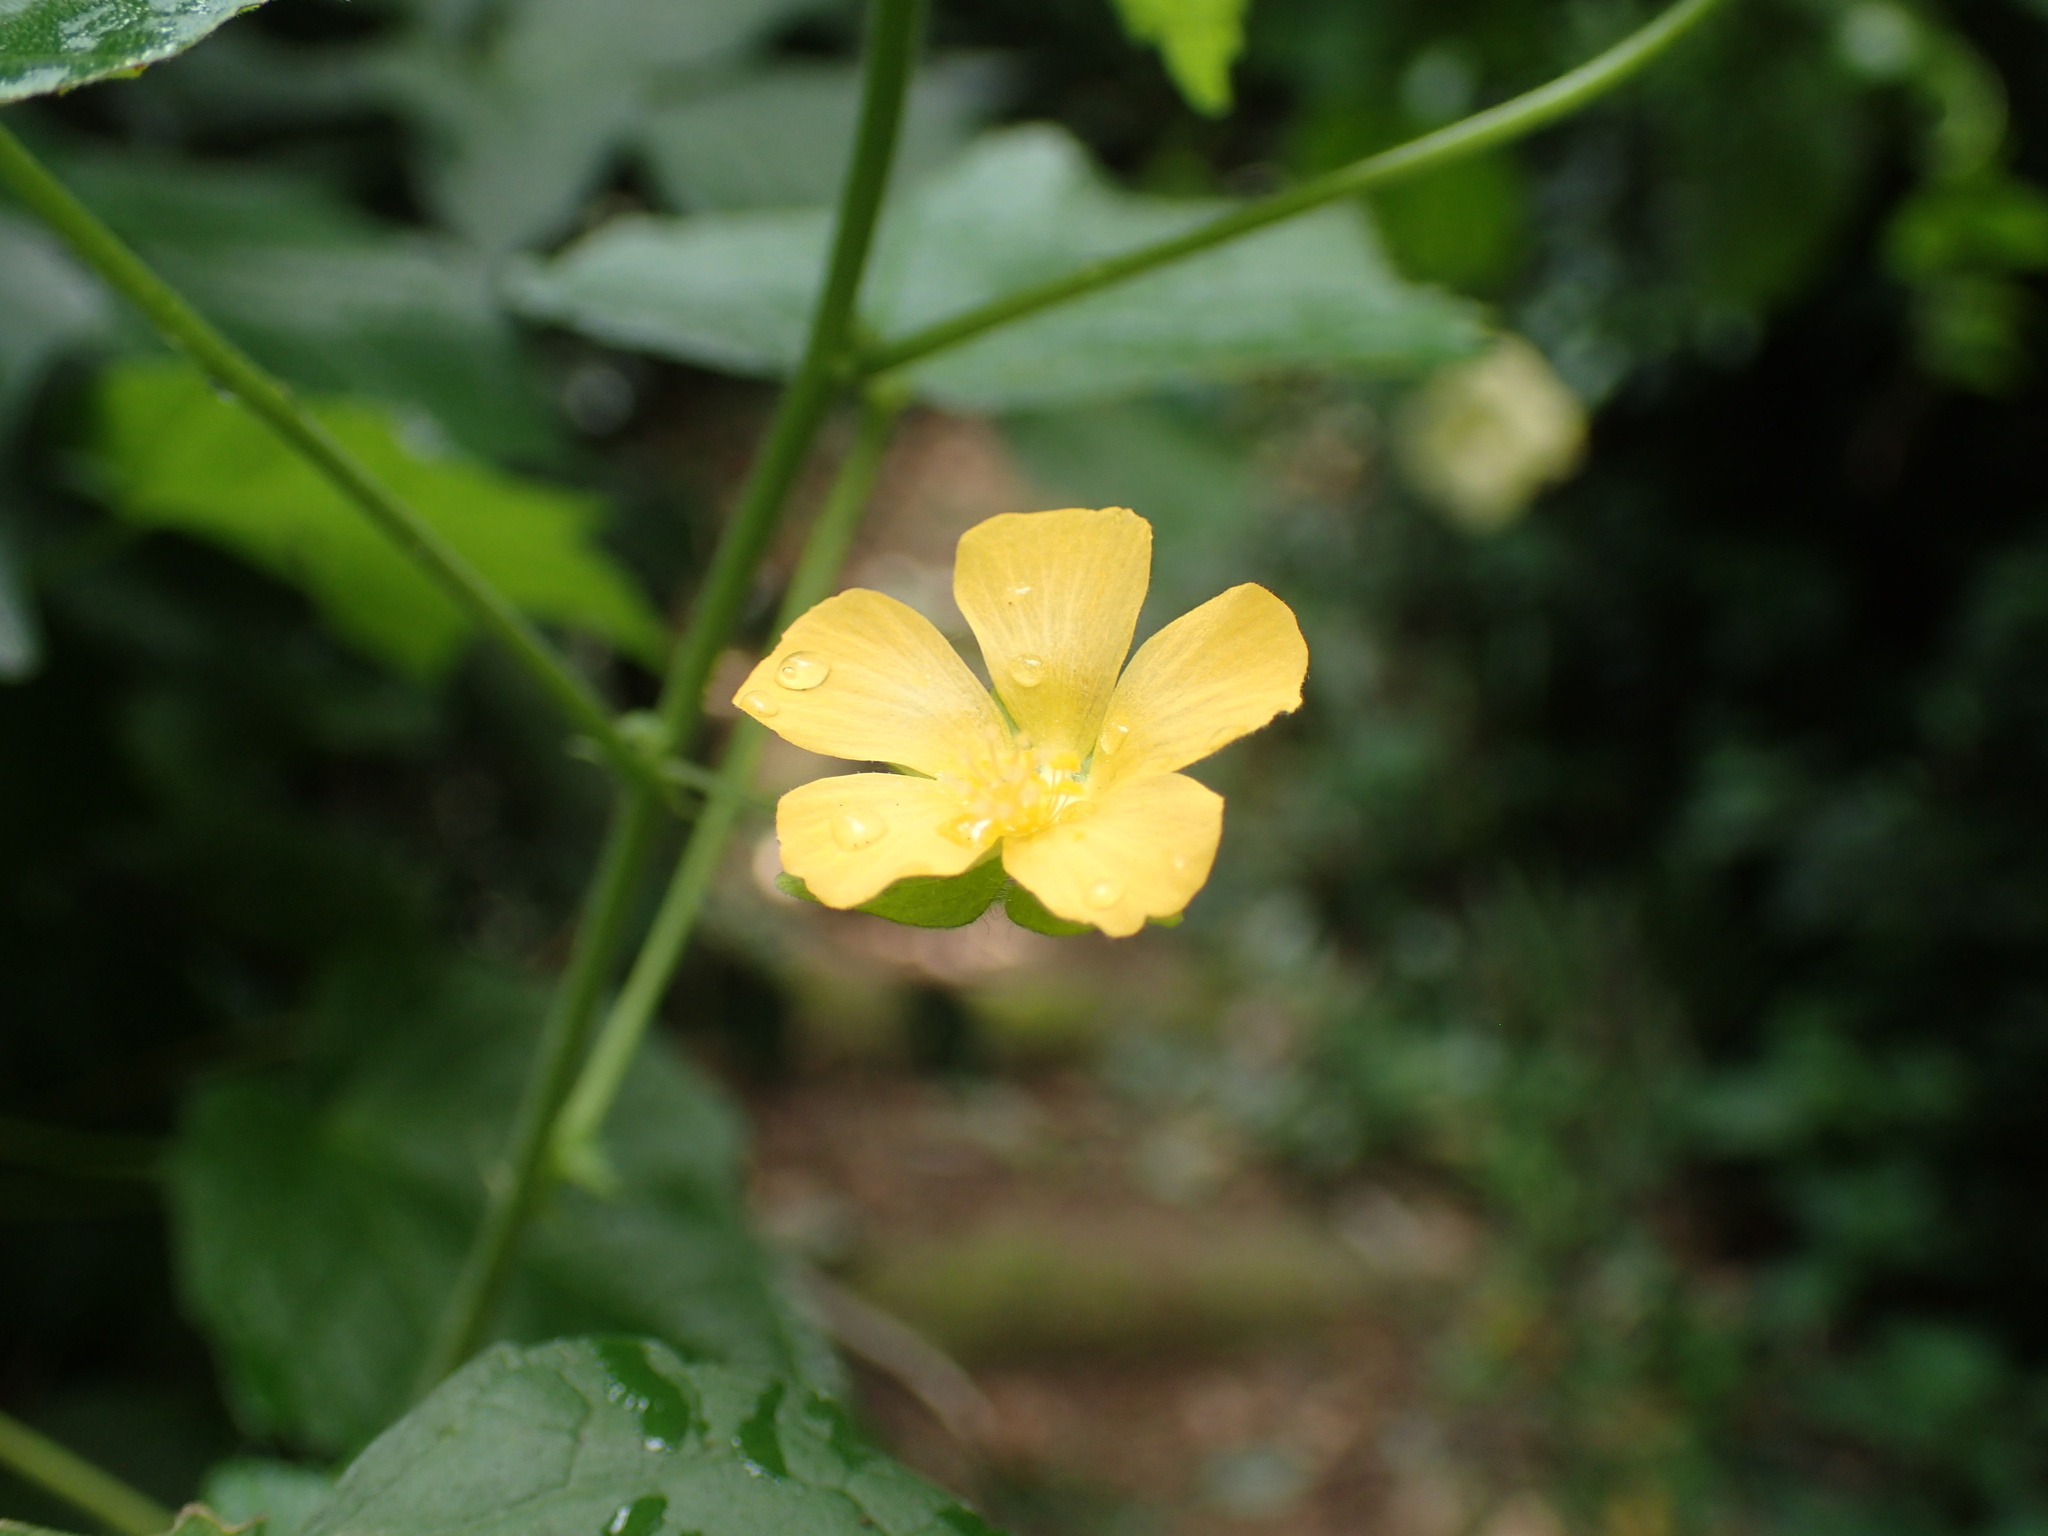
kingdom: Plantae
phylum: Tracheophyta
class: Magnoliopsida
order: Malvales
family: Malvaceae
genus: Abutilon
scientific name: Abutilon grantii
